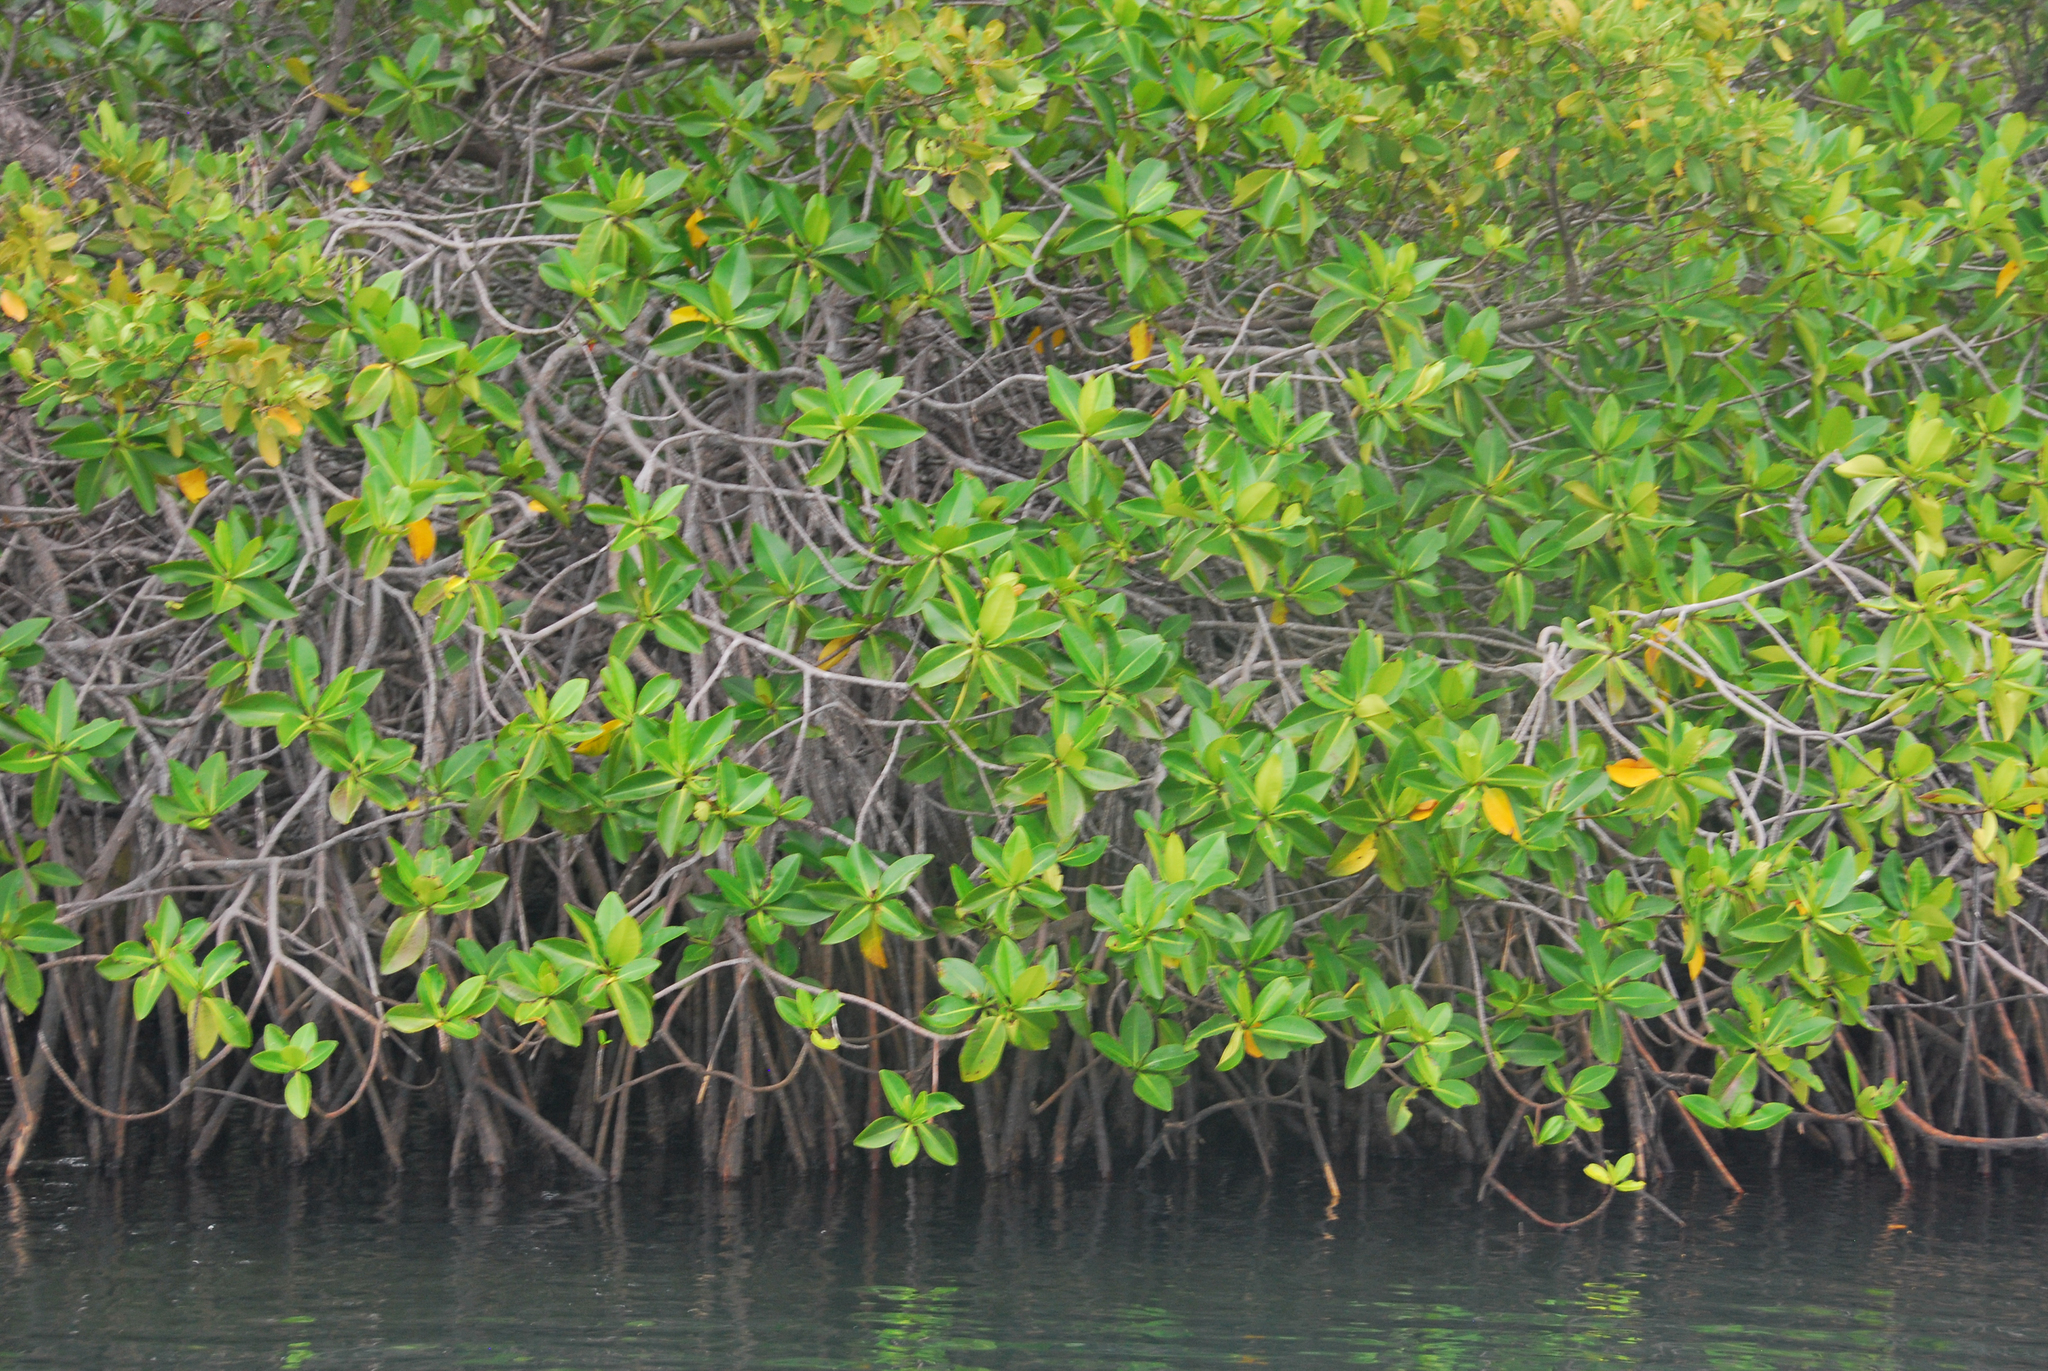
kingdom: Plantae
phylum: Tracheophyta
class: Magnoliopsida
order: Malpighiales
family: Rhizophoraceae
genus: Rhizophora
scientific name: Rhizophora mangle
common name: Red mangrove
